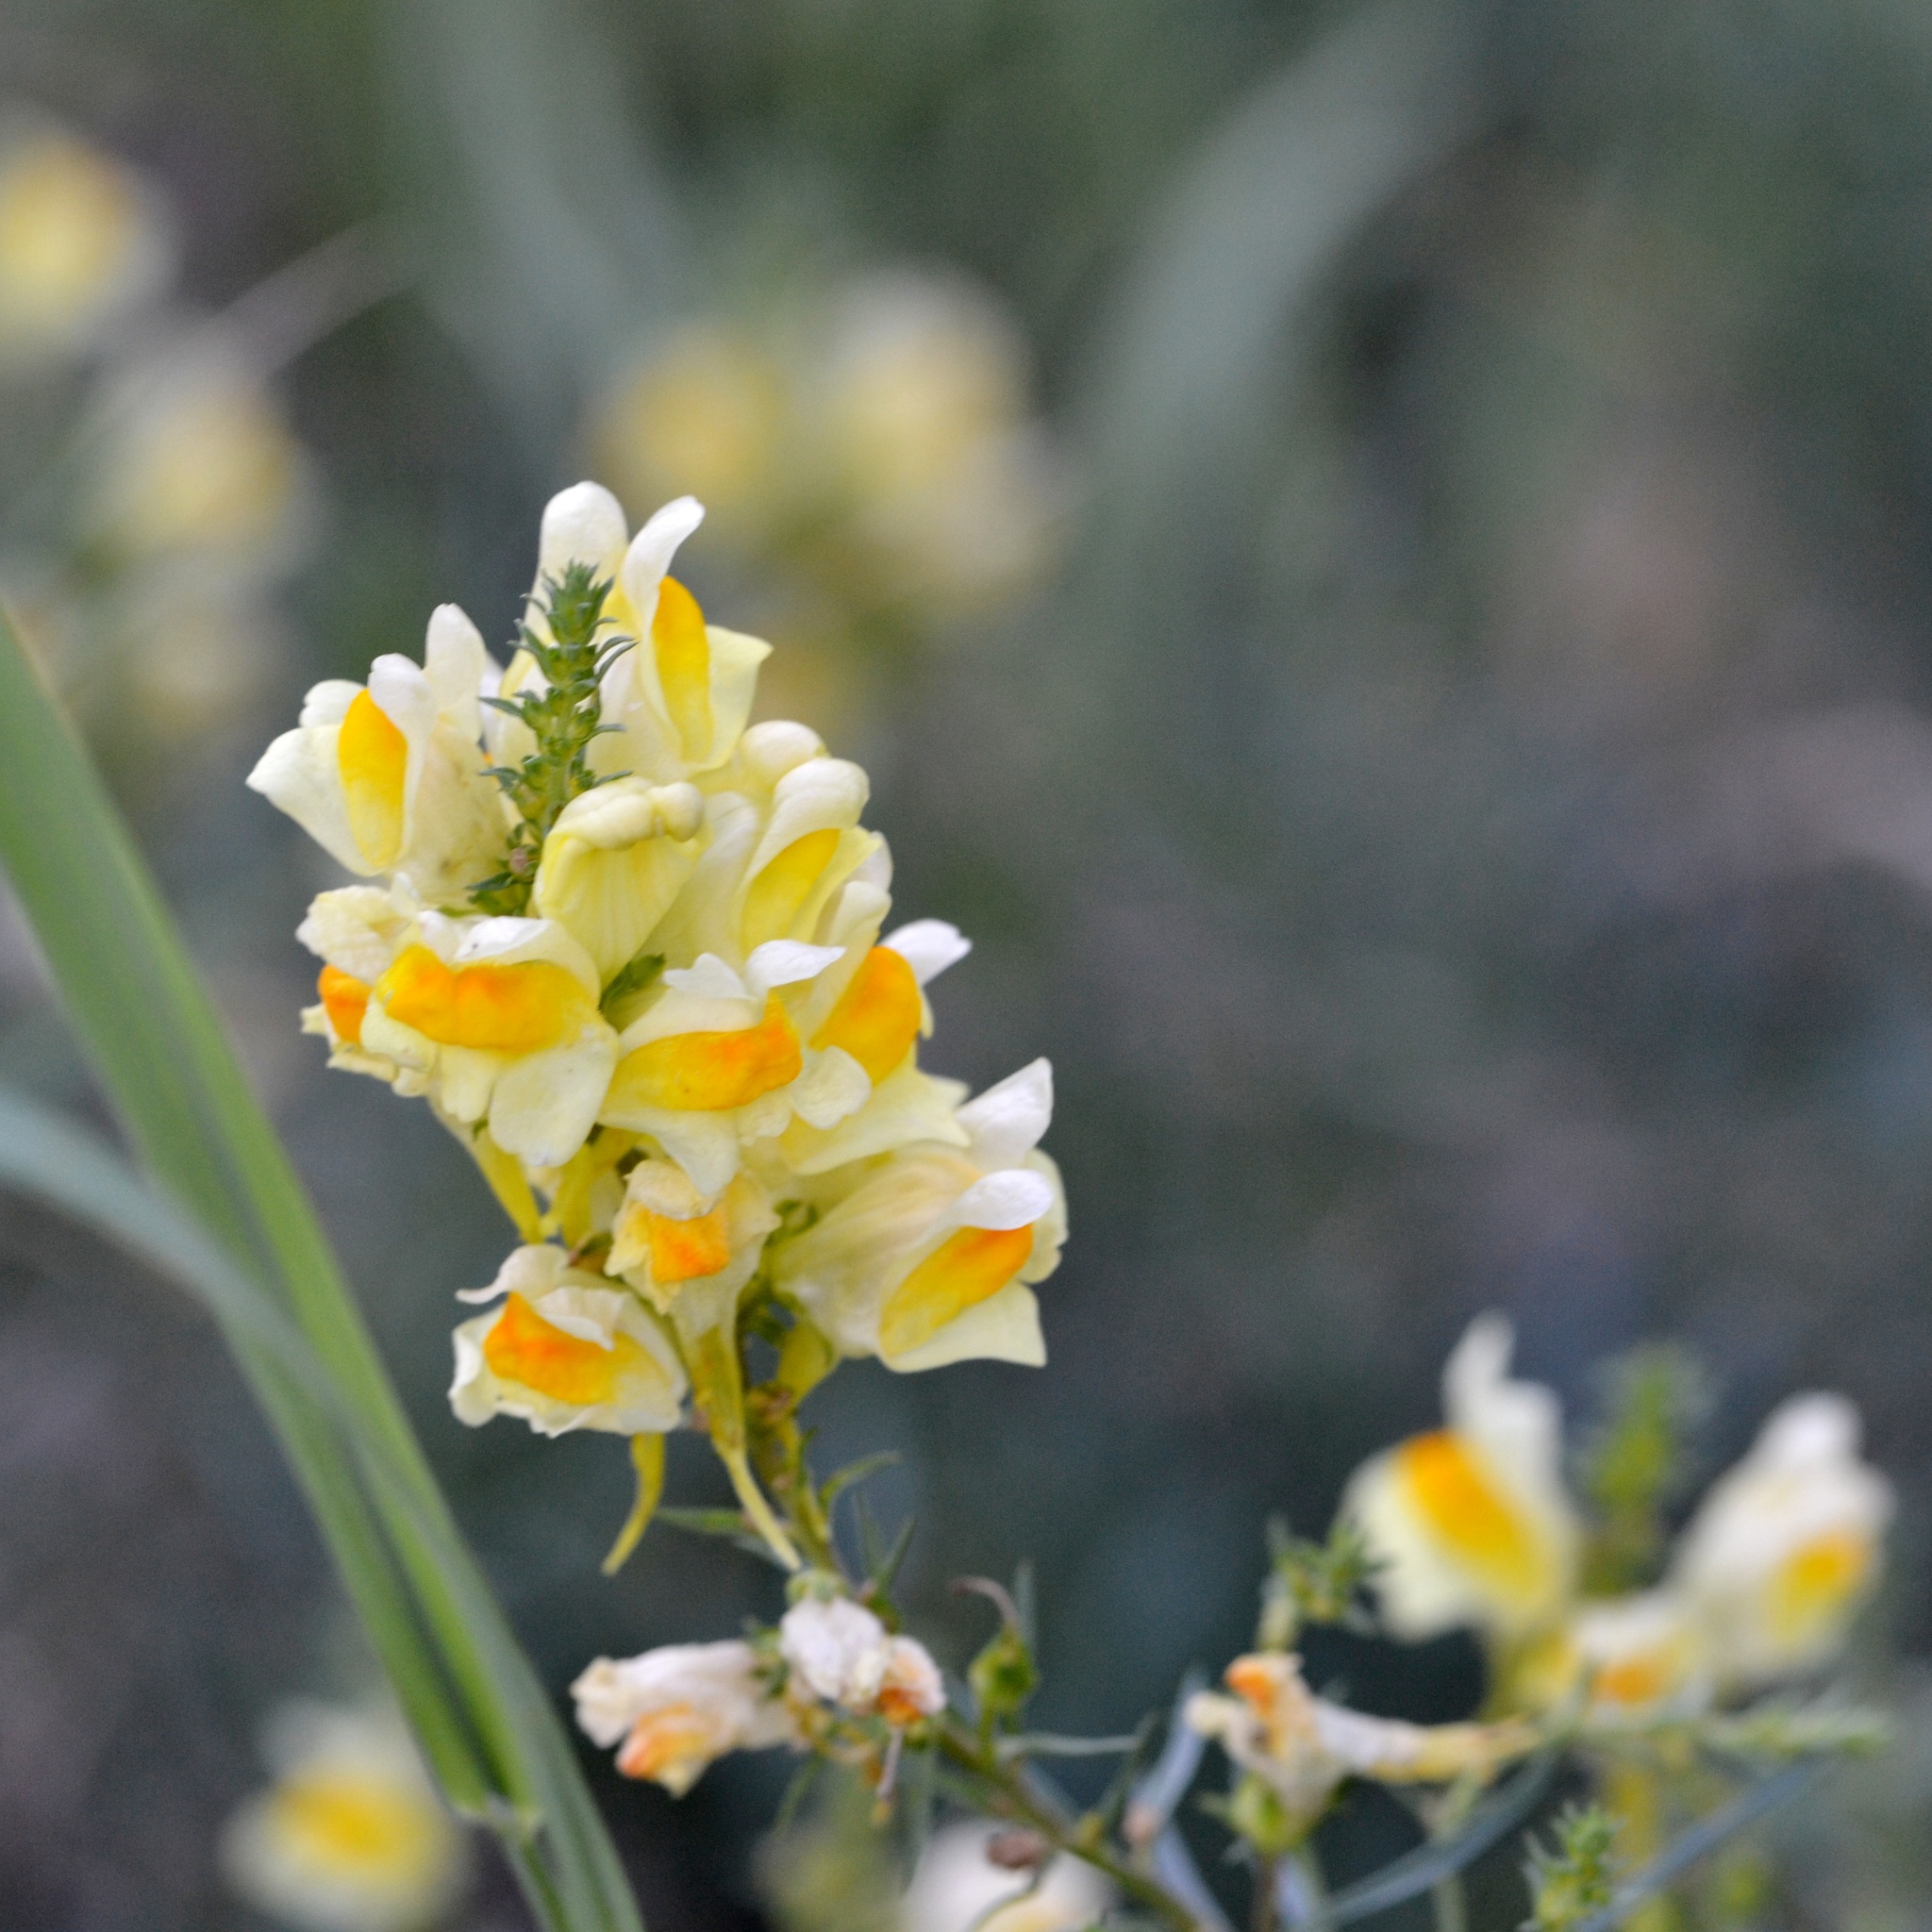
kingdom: Plantae
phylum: Tracheophyta
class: Magnoliopsida
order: Lamiales
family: Plantaginaceae
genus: Linaria
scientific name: Linaria vulgaris
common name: Butter and eggs
